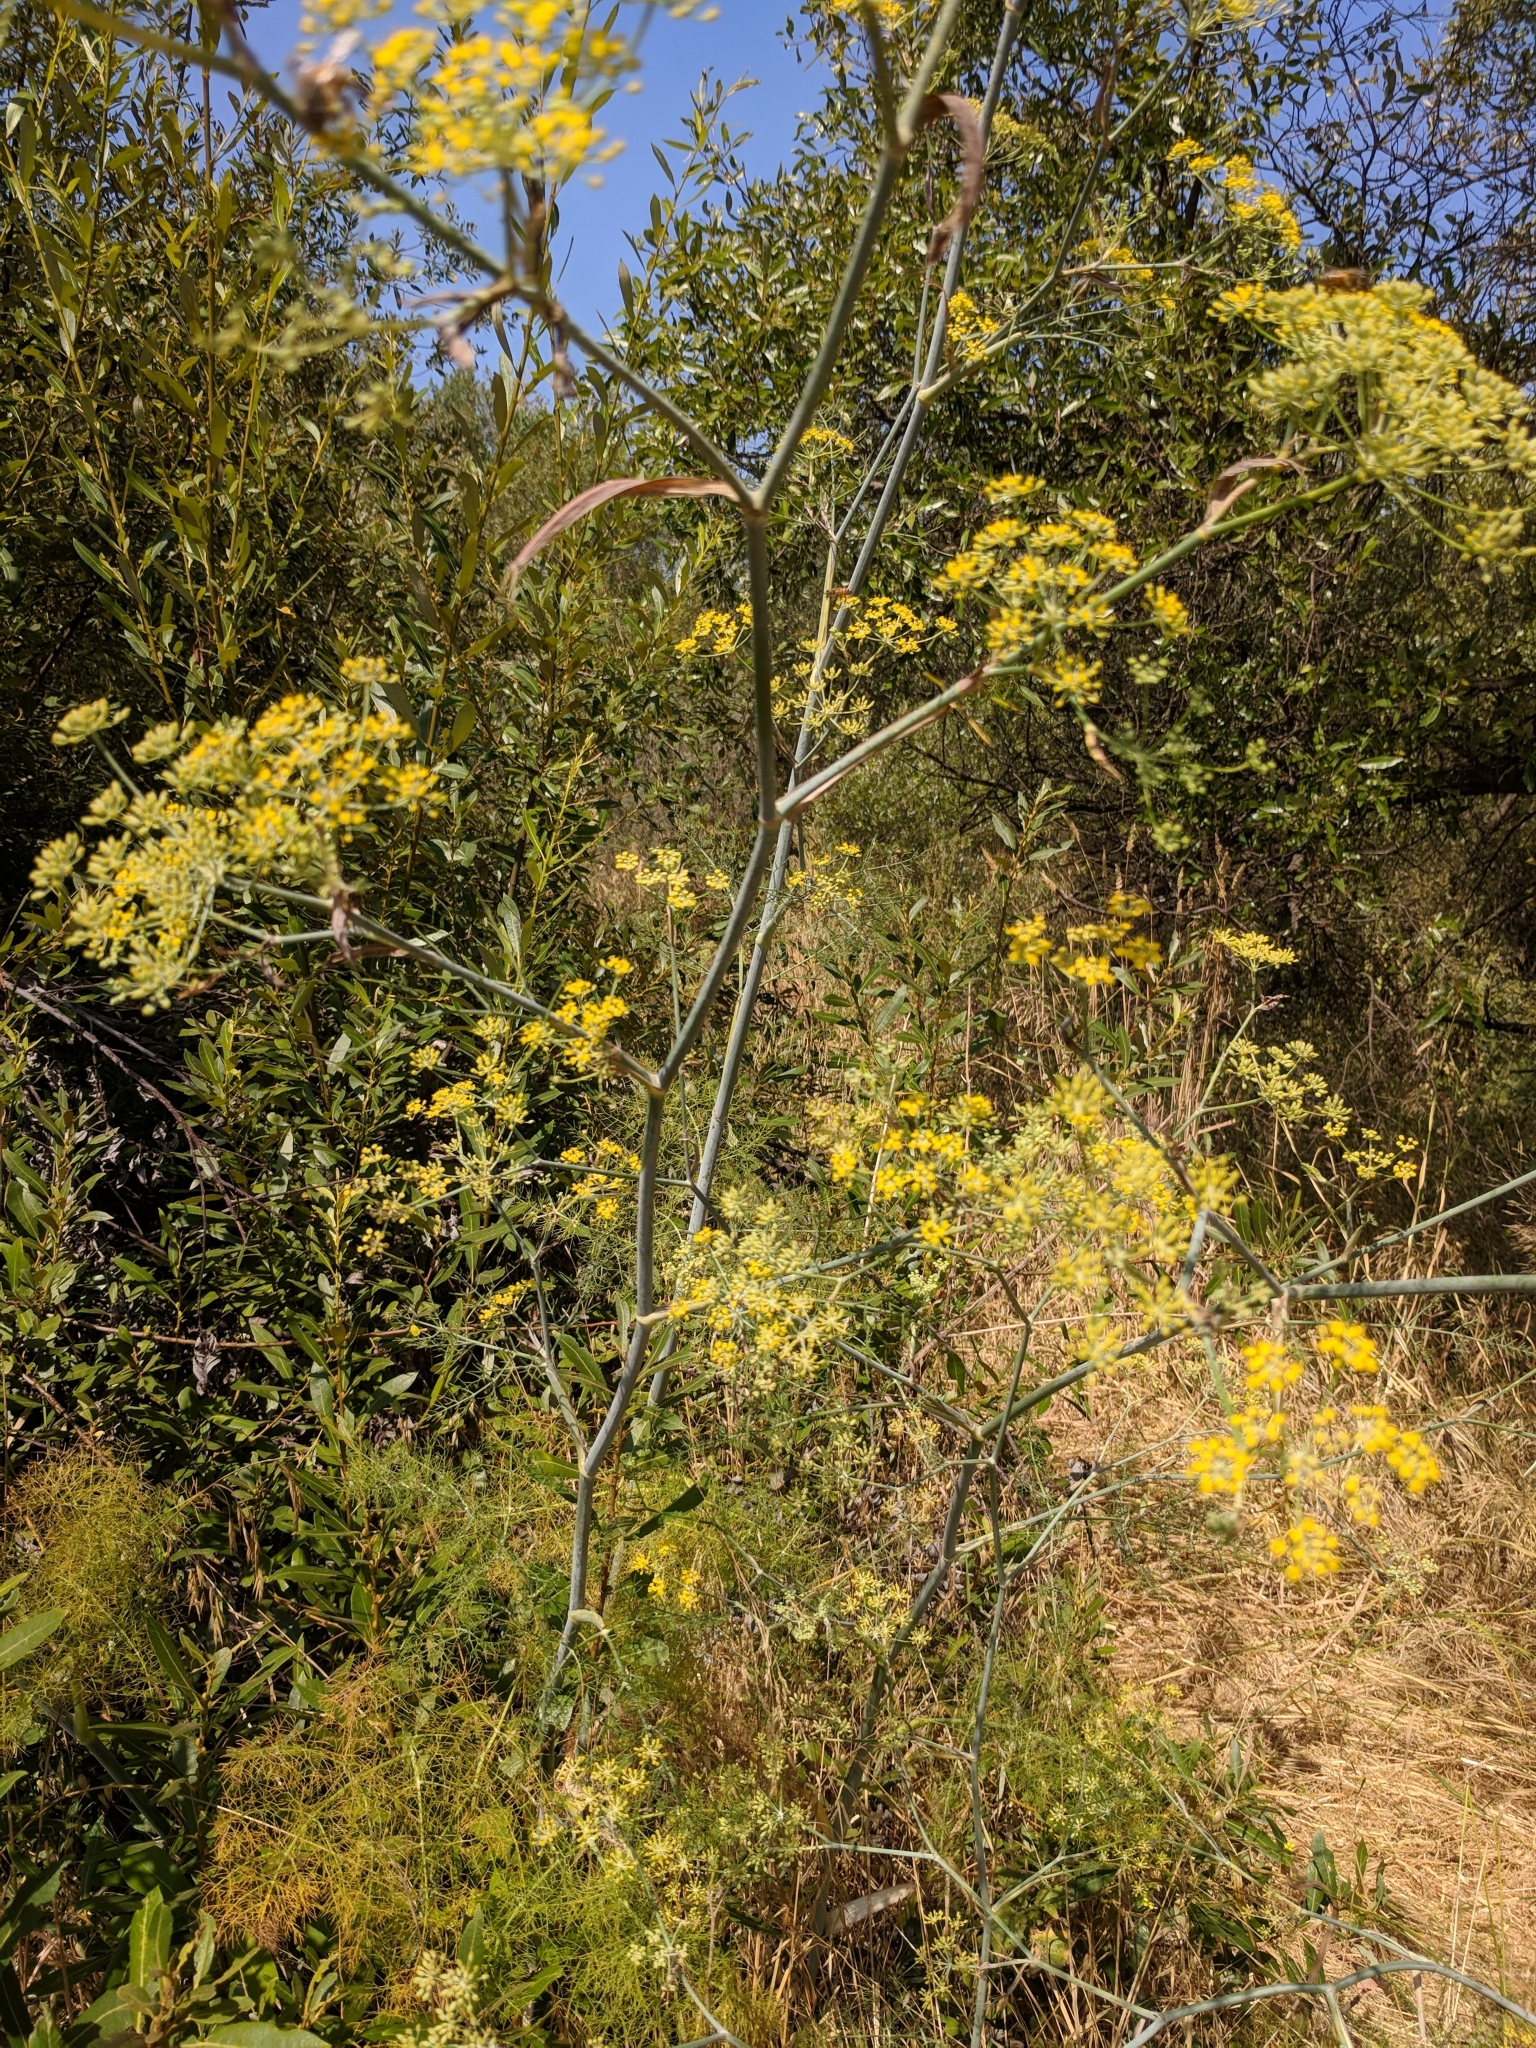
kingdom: Plantae
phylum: Tracheophyta
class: Magnoliopsida
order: Apiales
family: Apiaceae
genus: Foeniculum
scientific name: Foeniculum vulgare
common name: Fennel
